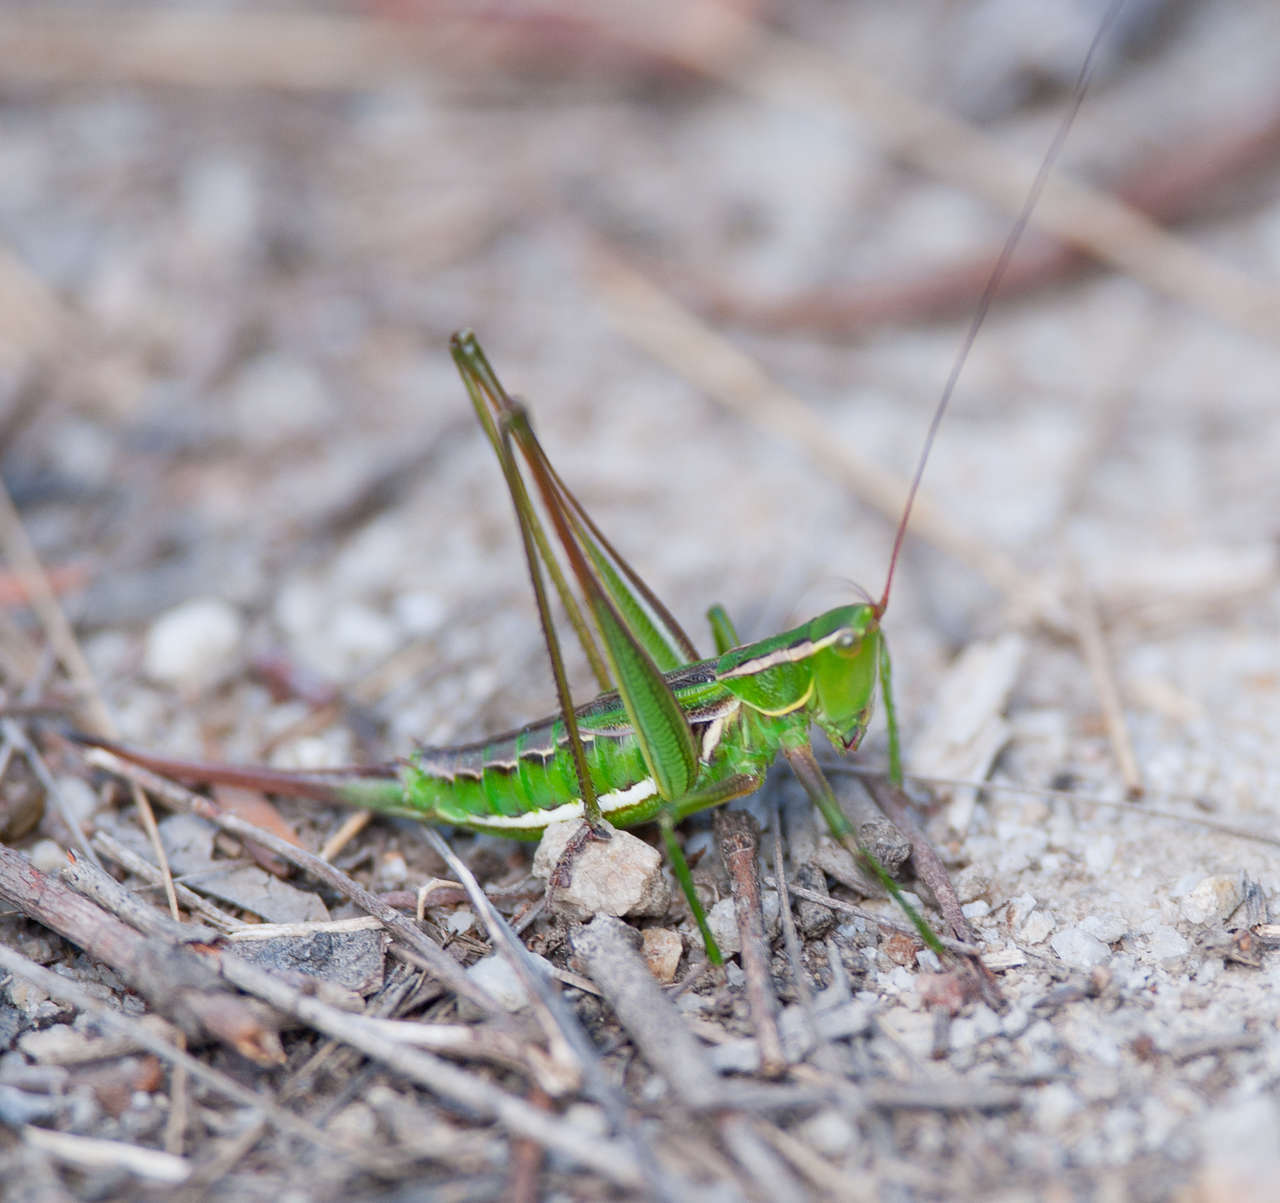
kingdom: Animalia
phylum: Arthropoda
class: Insecta
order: Orthoptera
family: Tettigoniidae
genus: Metaballus
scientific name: Metaballus sagaeformis
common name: Adelaide marauding katydid
